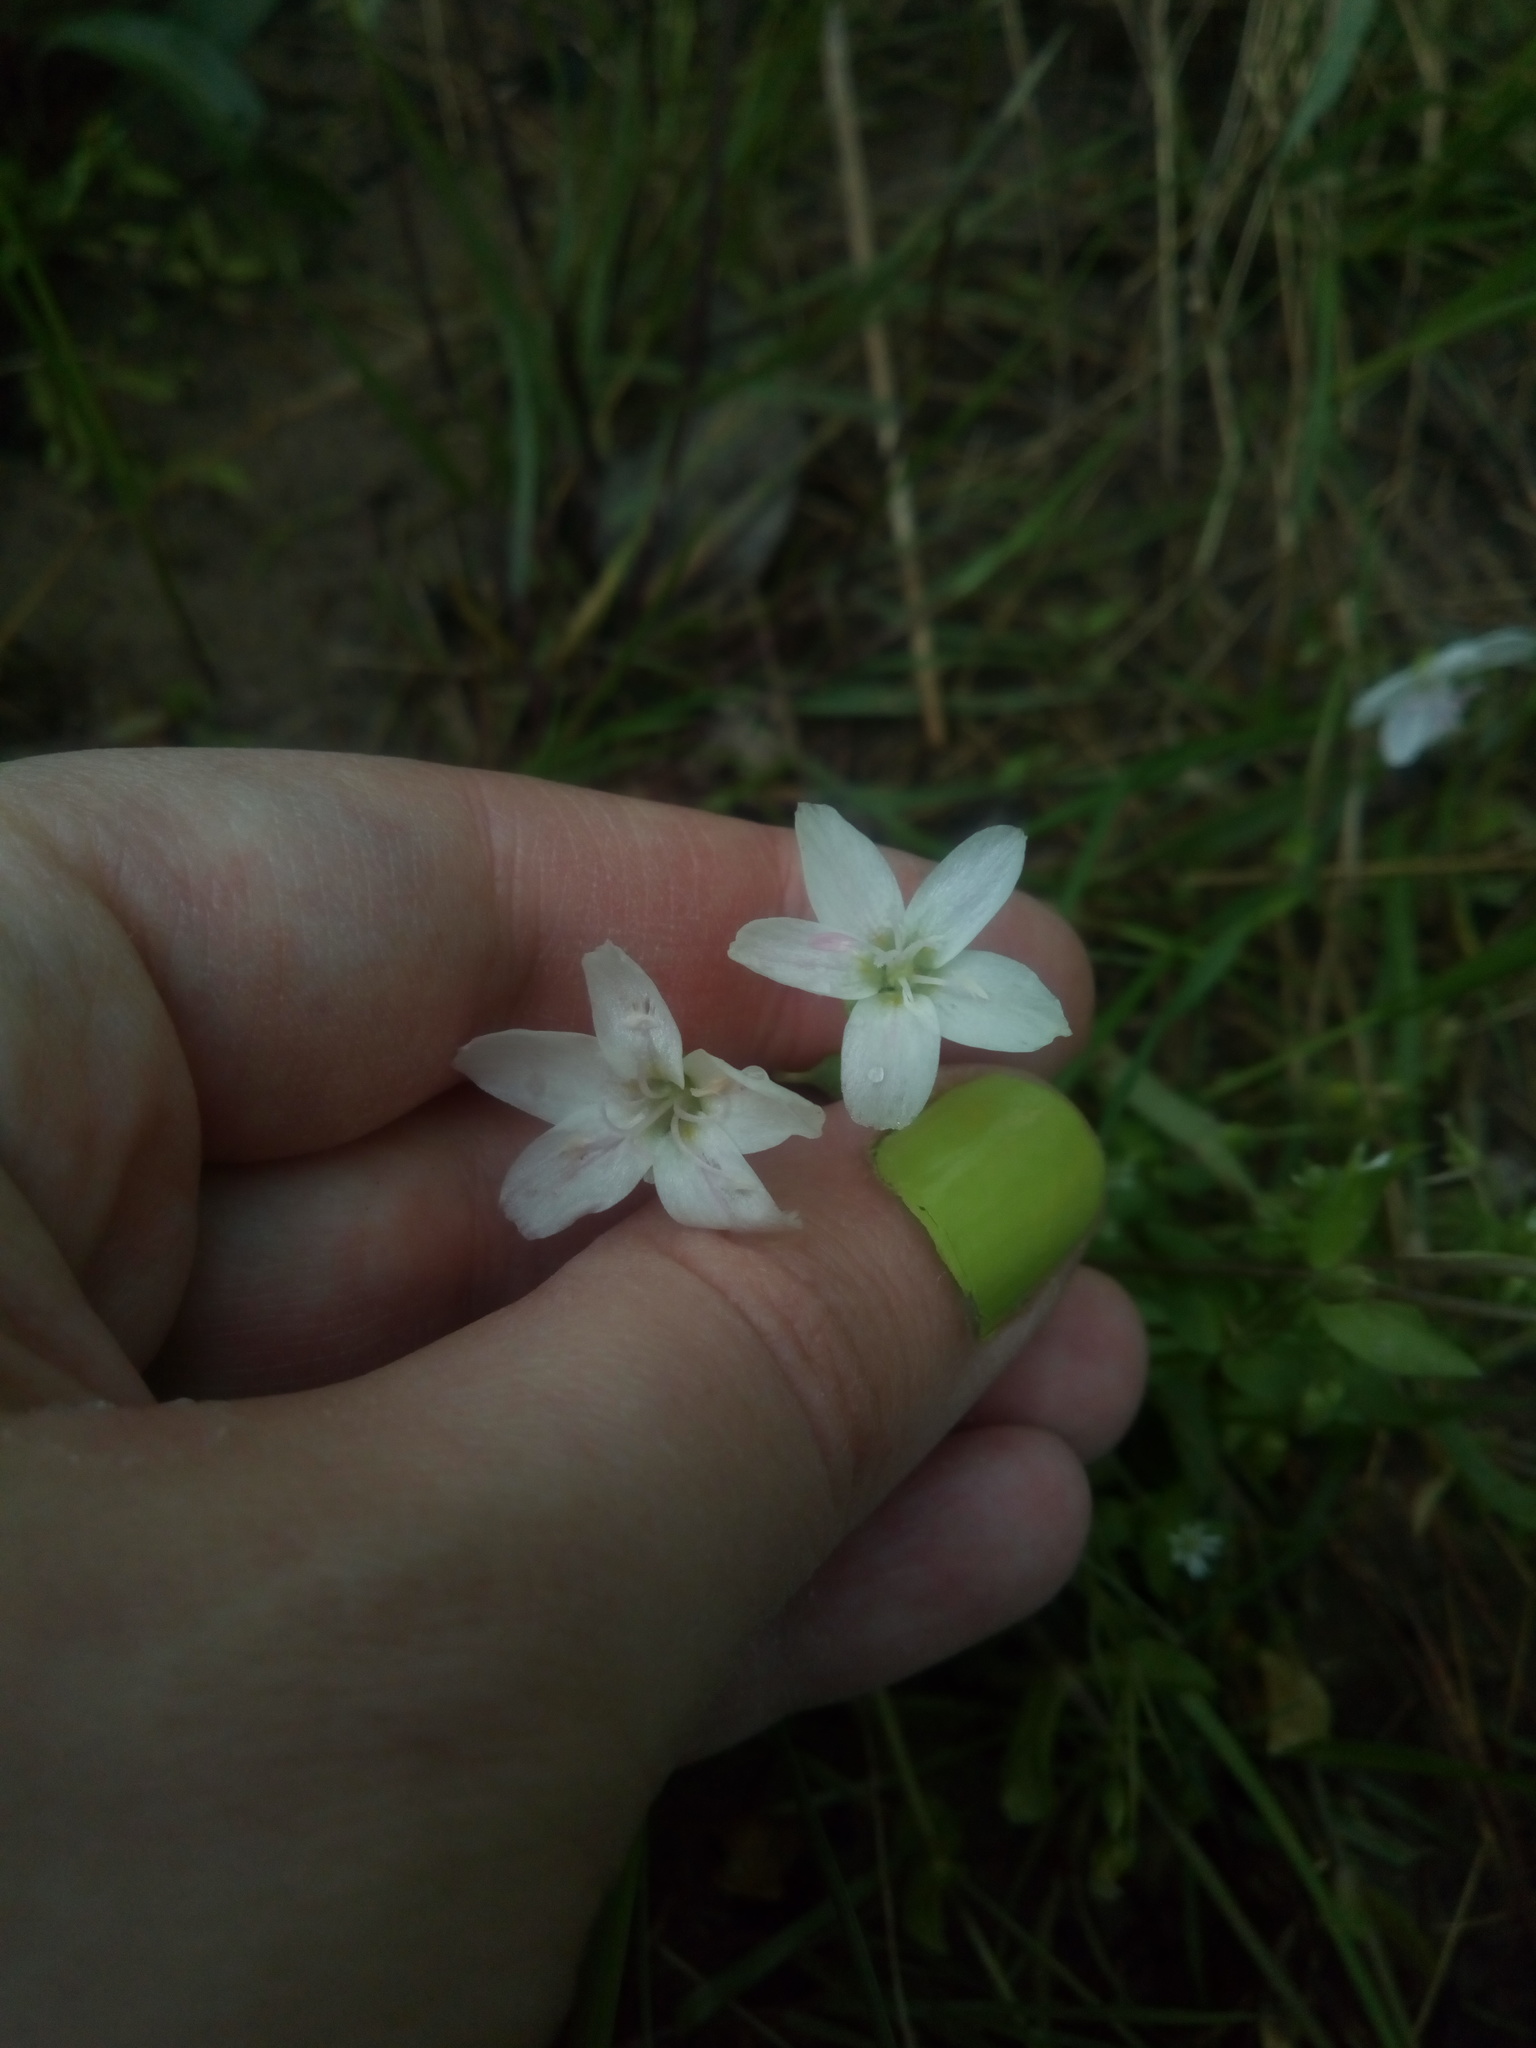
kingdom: Plantae
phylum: Tracheophyta
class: Magnoliopsida
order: Caryophyllales
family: Montiaceae
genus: Claytonia
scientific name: Claytonia virginica
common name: Virginia springbeauty
